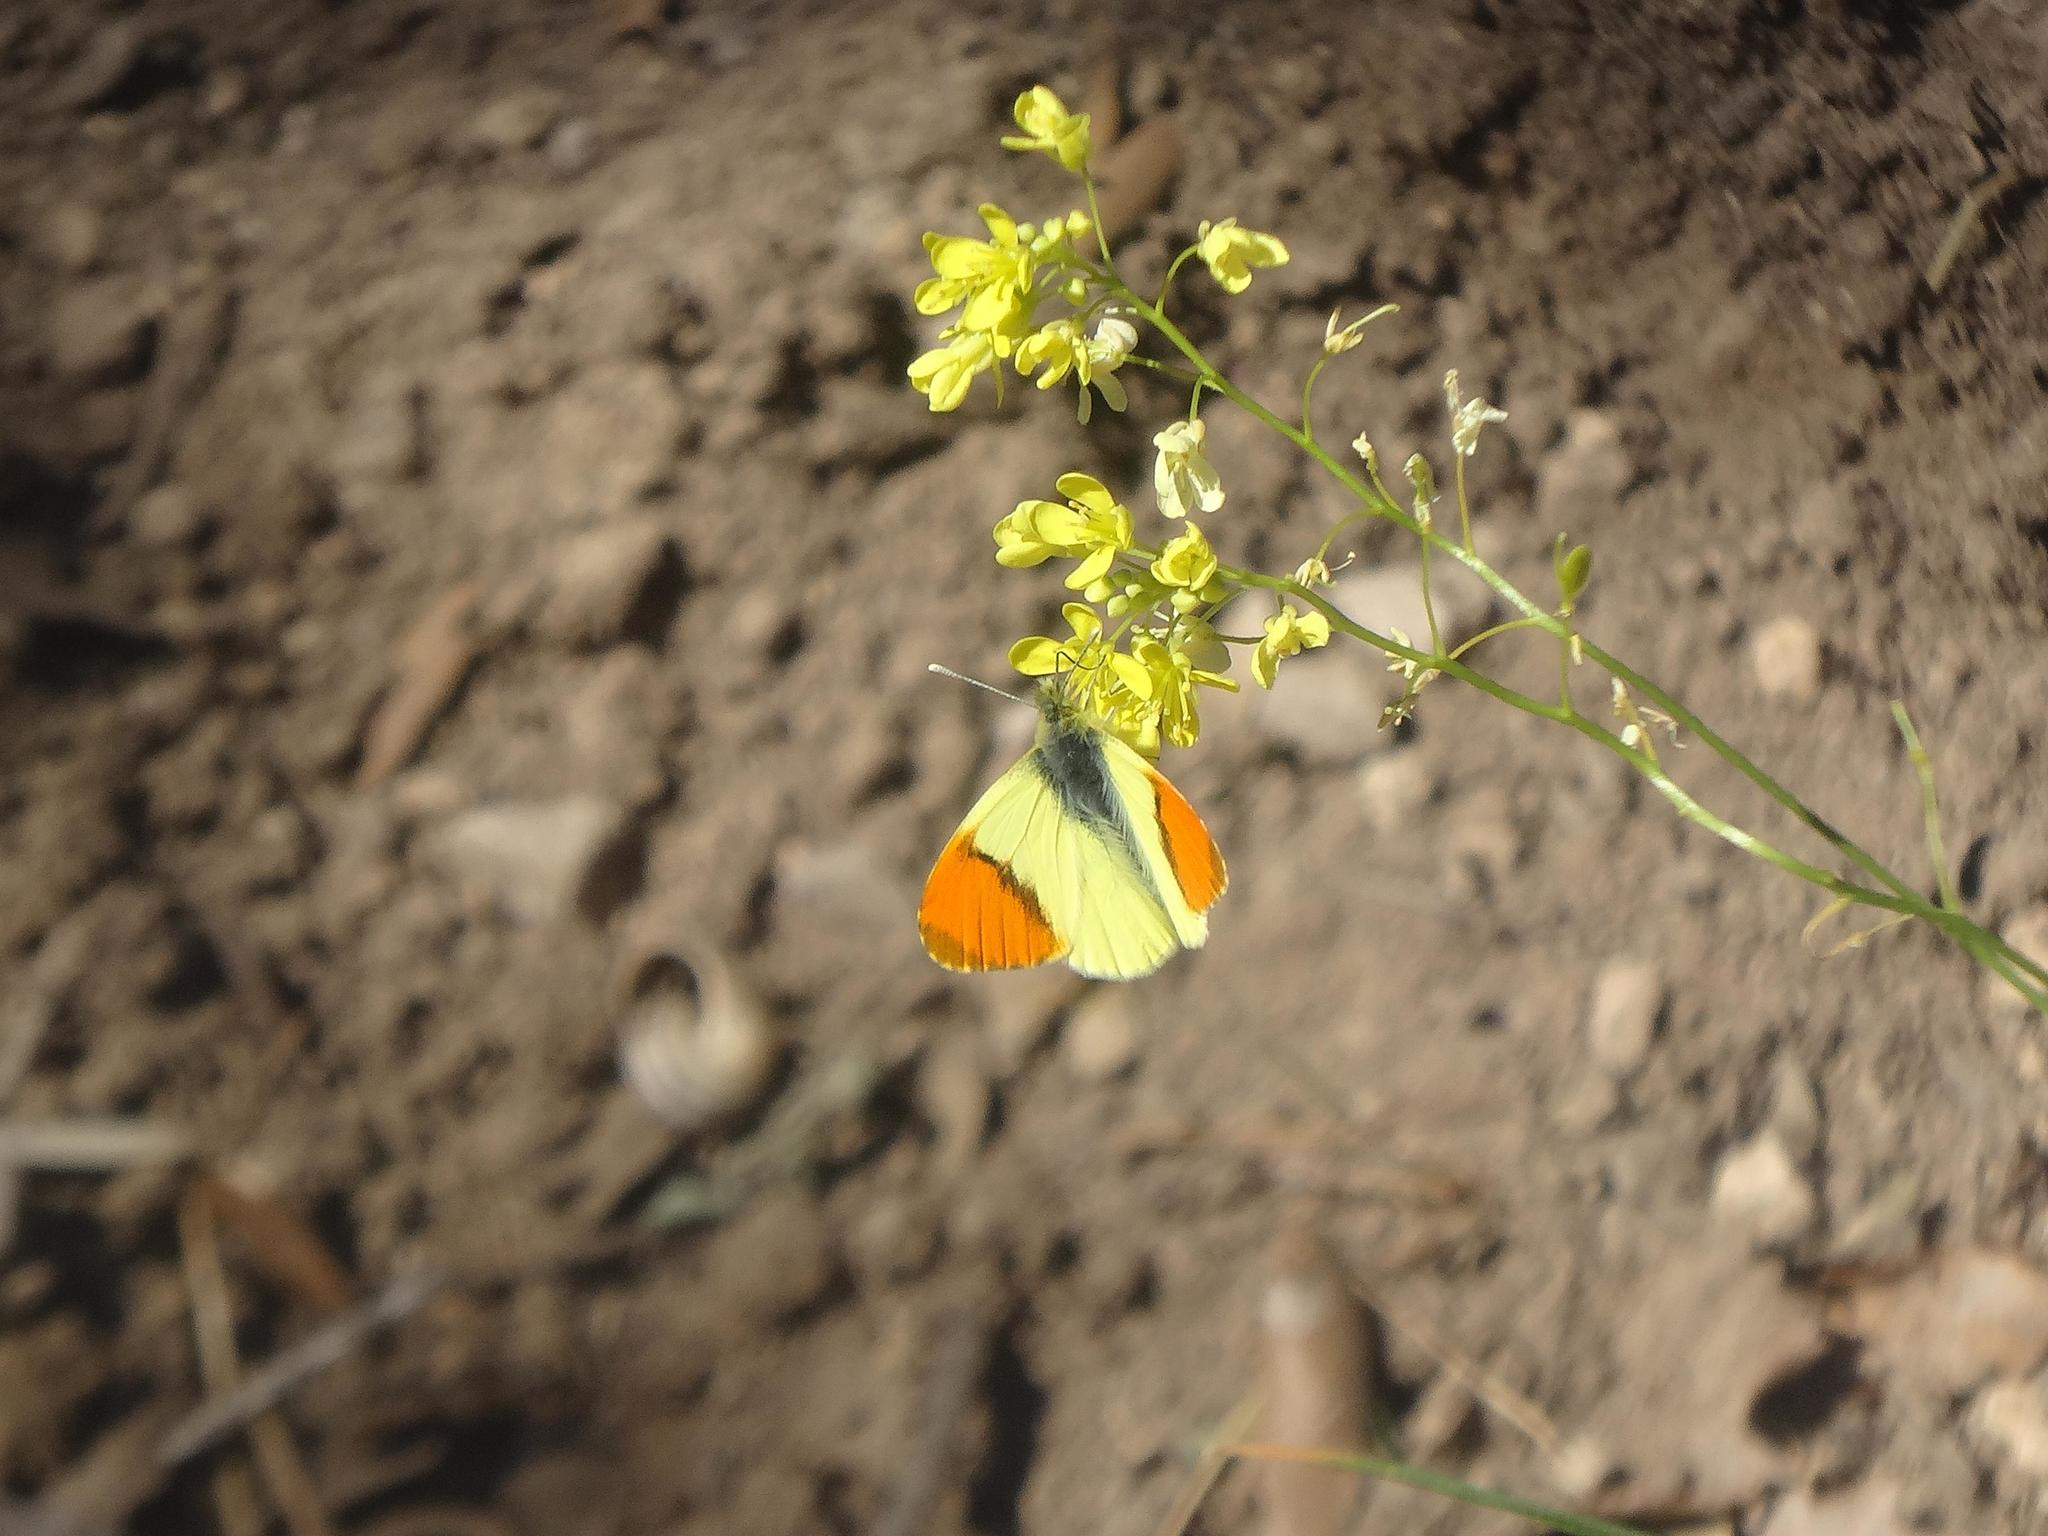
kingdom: Animalia
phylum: Arthropoda
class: Insecta
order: Lepidoptera
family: Pieridae
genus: Anthocharis
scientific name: Anthocharis euphenoides
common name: Provence orange-tip
